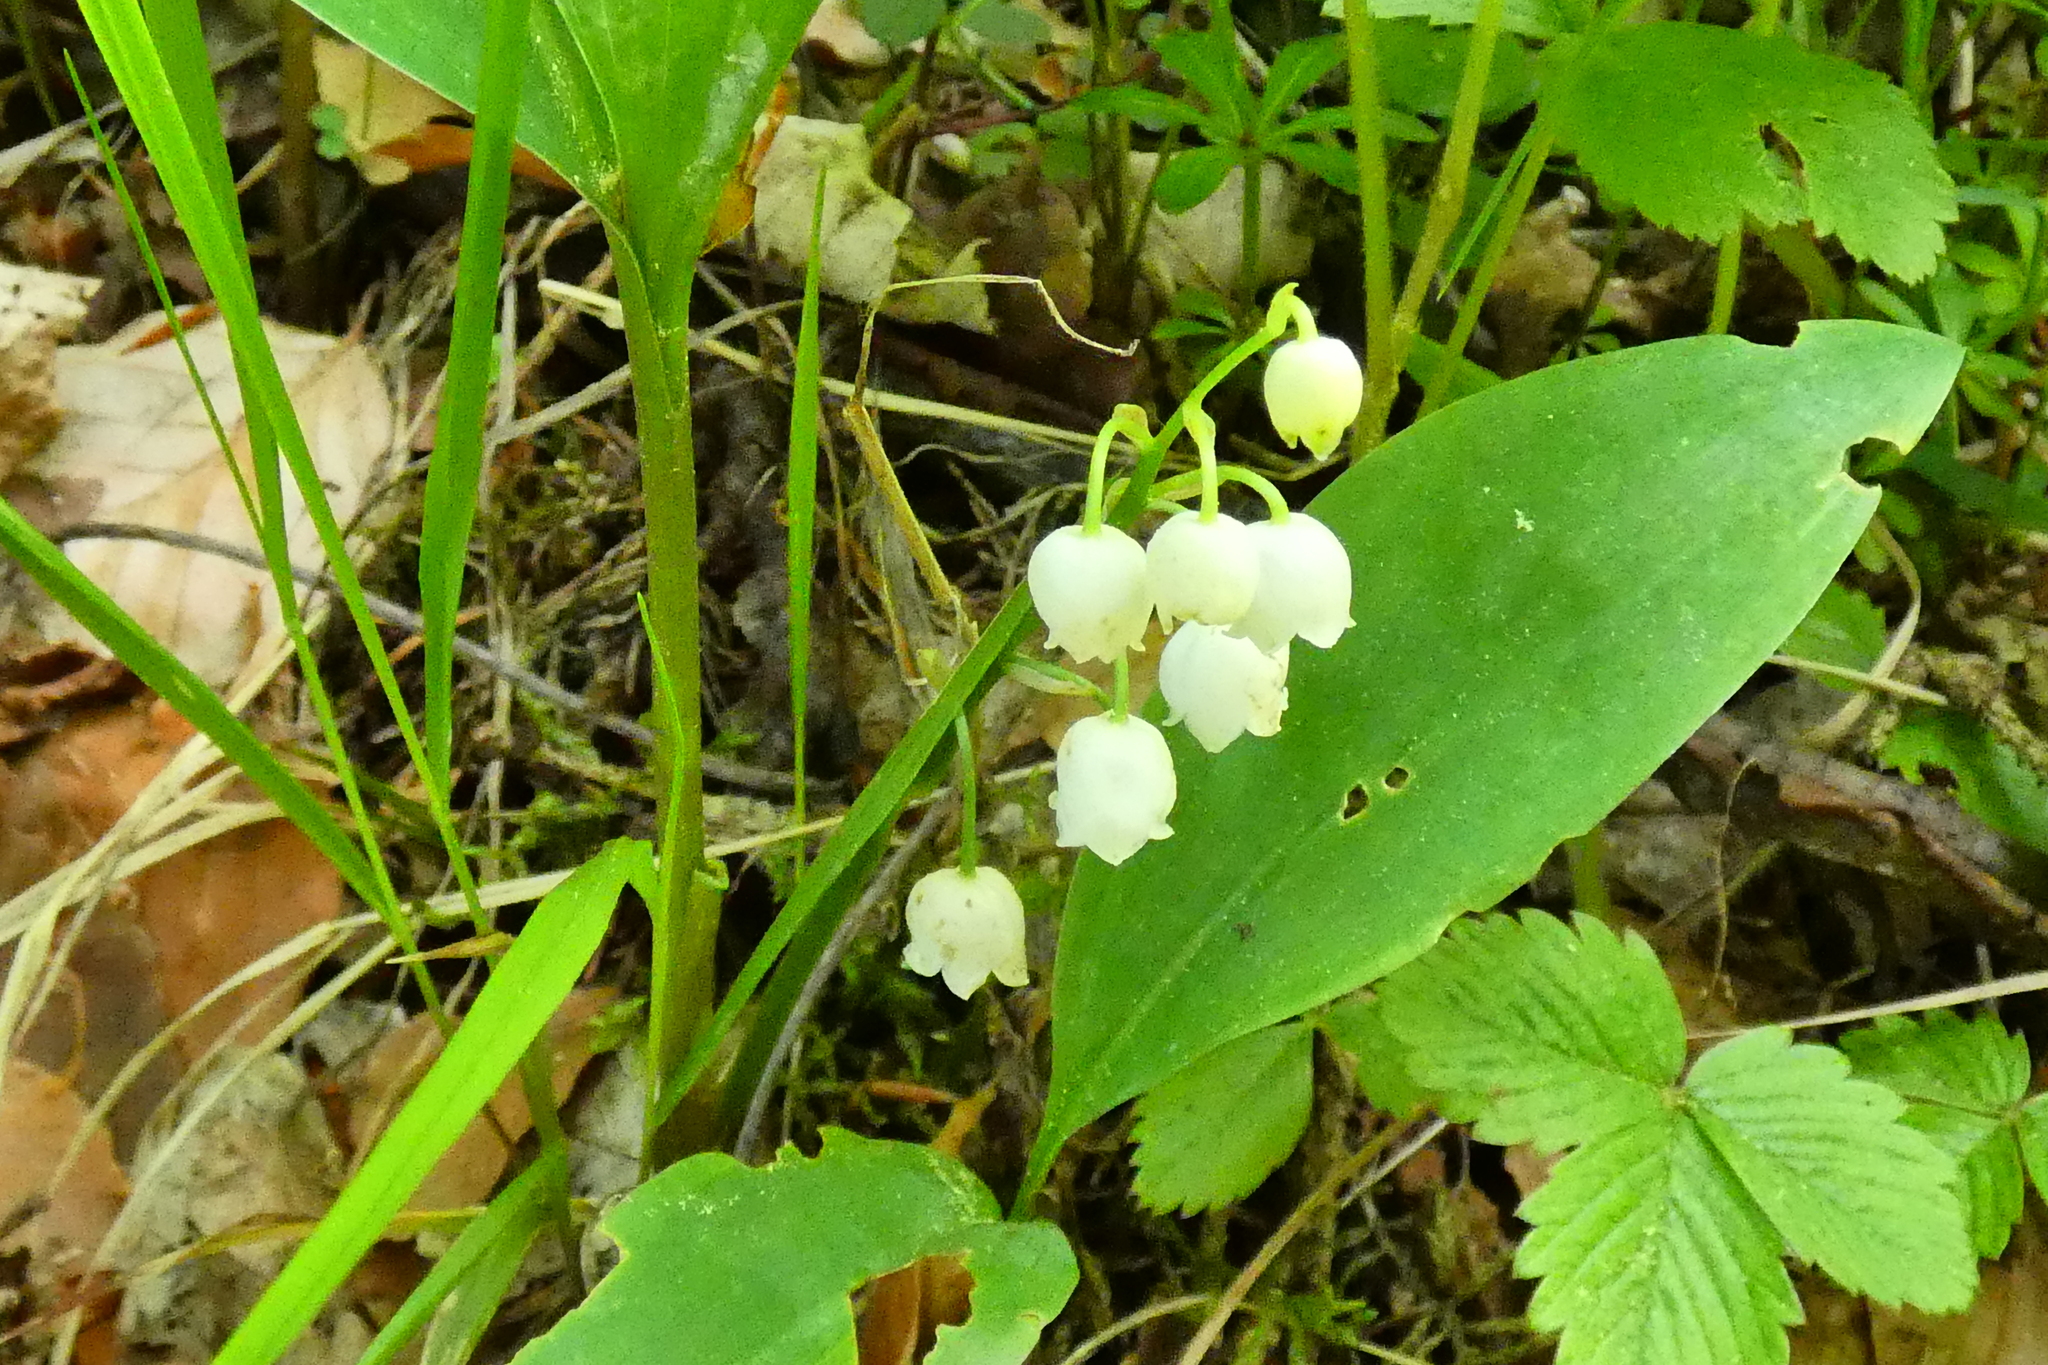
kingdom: Plantae
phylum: Tracheophyta
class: Liliopsida
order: Asparagales
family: Asparagaceae
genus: Convallaria
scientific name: Convallaria majalis
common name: Lily-of-the-valley
